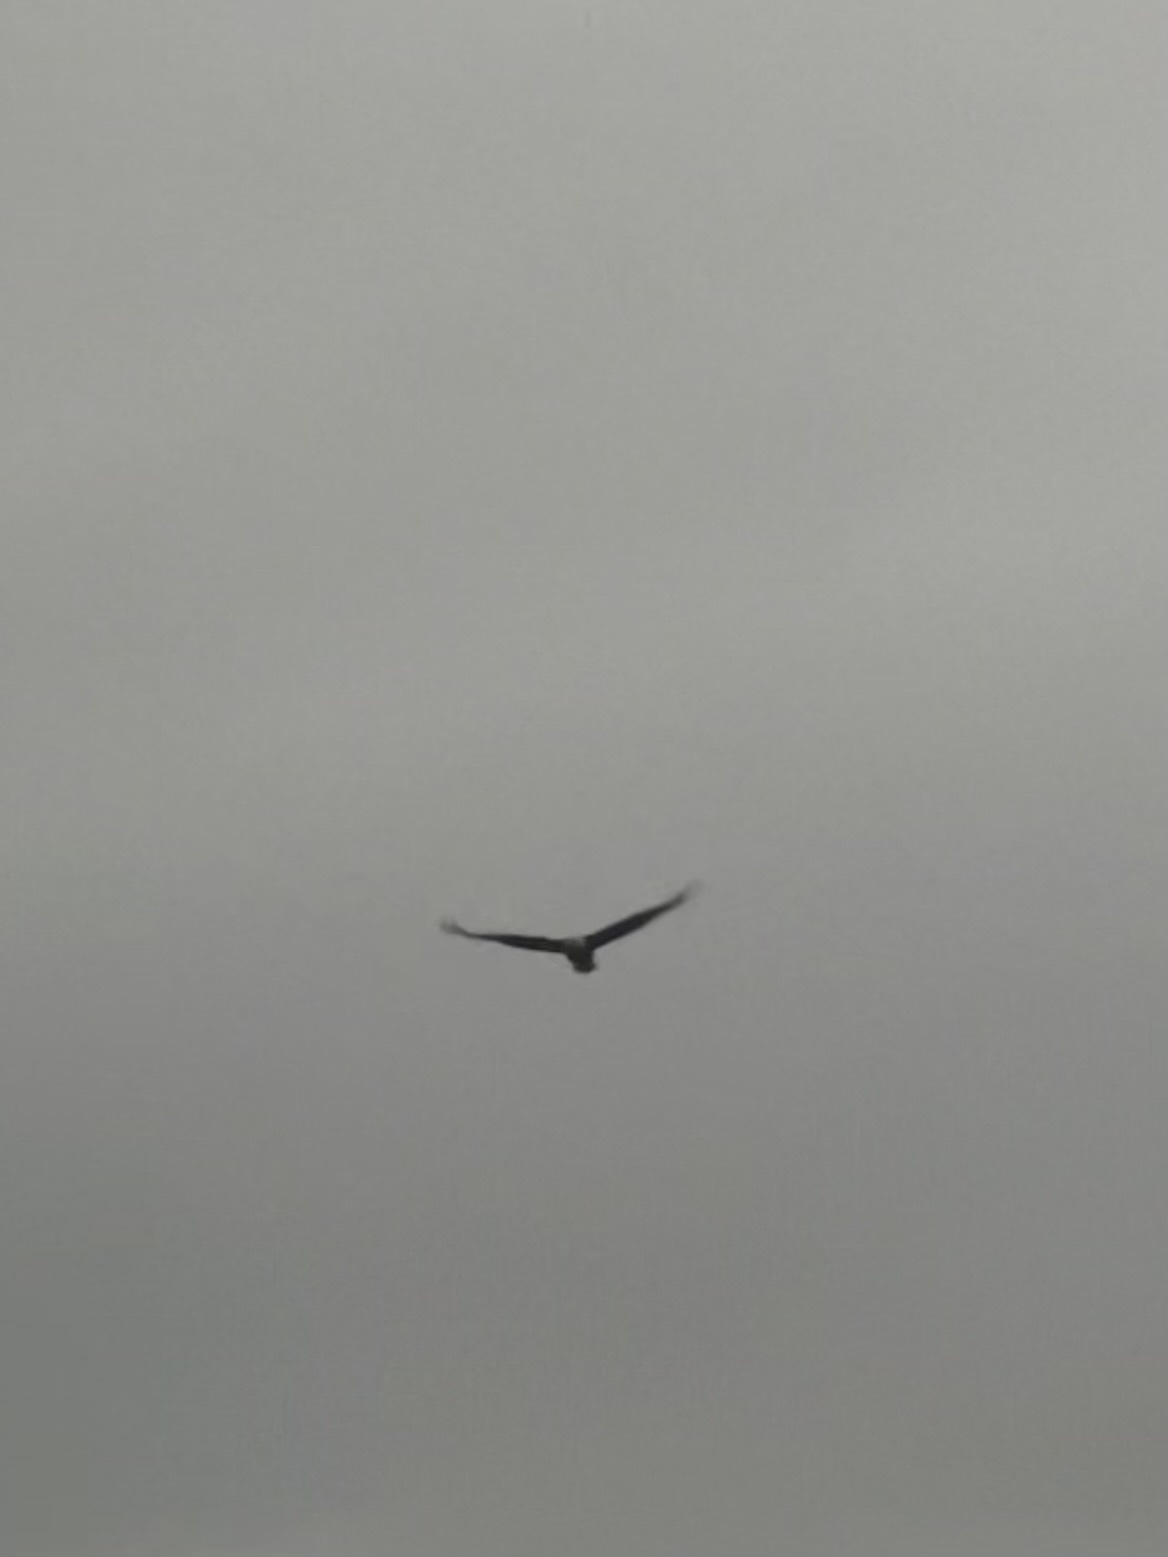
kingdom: Animalia
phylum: Chordata
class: Aves
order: Accipitriformes
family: Accipitridae
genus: Haliaeetus
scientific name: Haliaeetus leucocephalus
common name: Bald eagle
